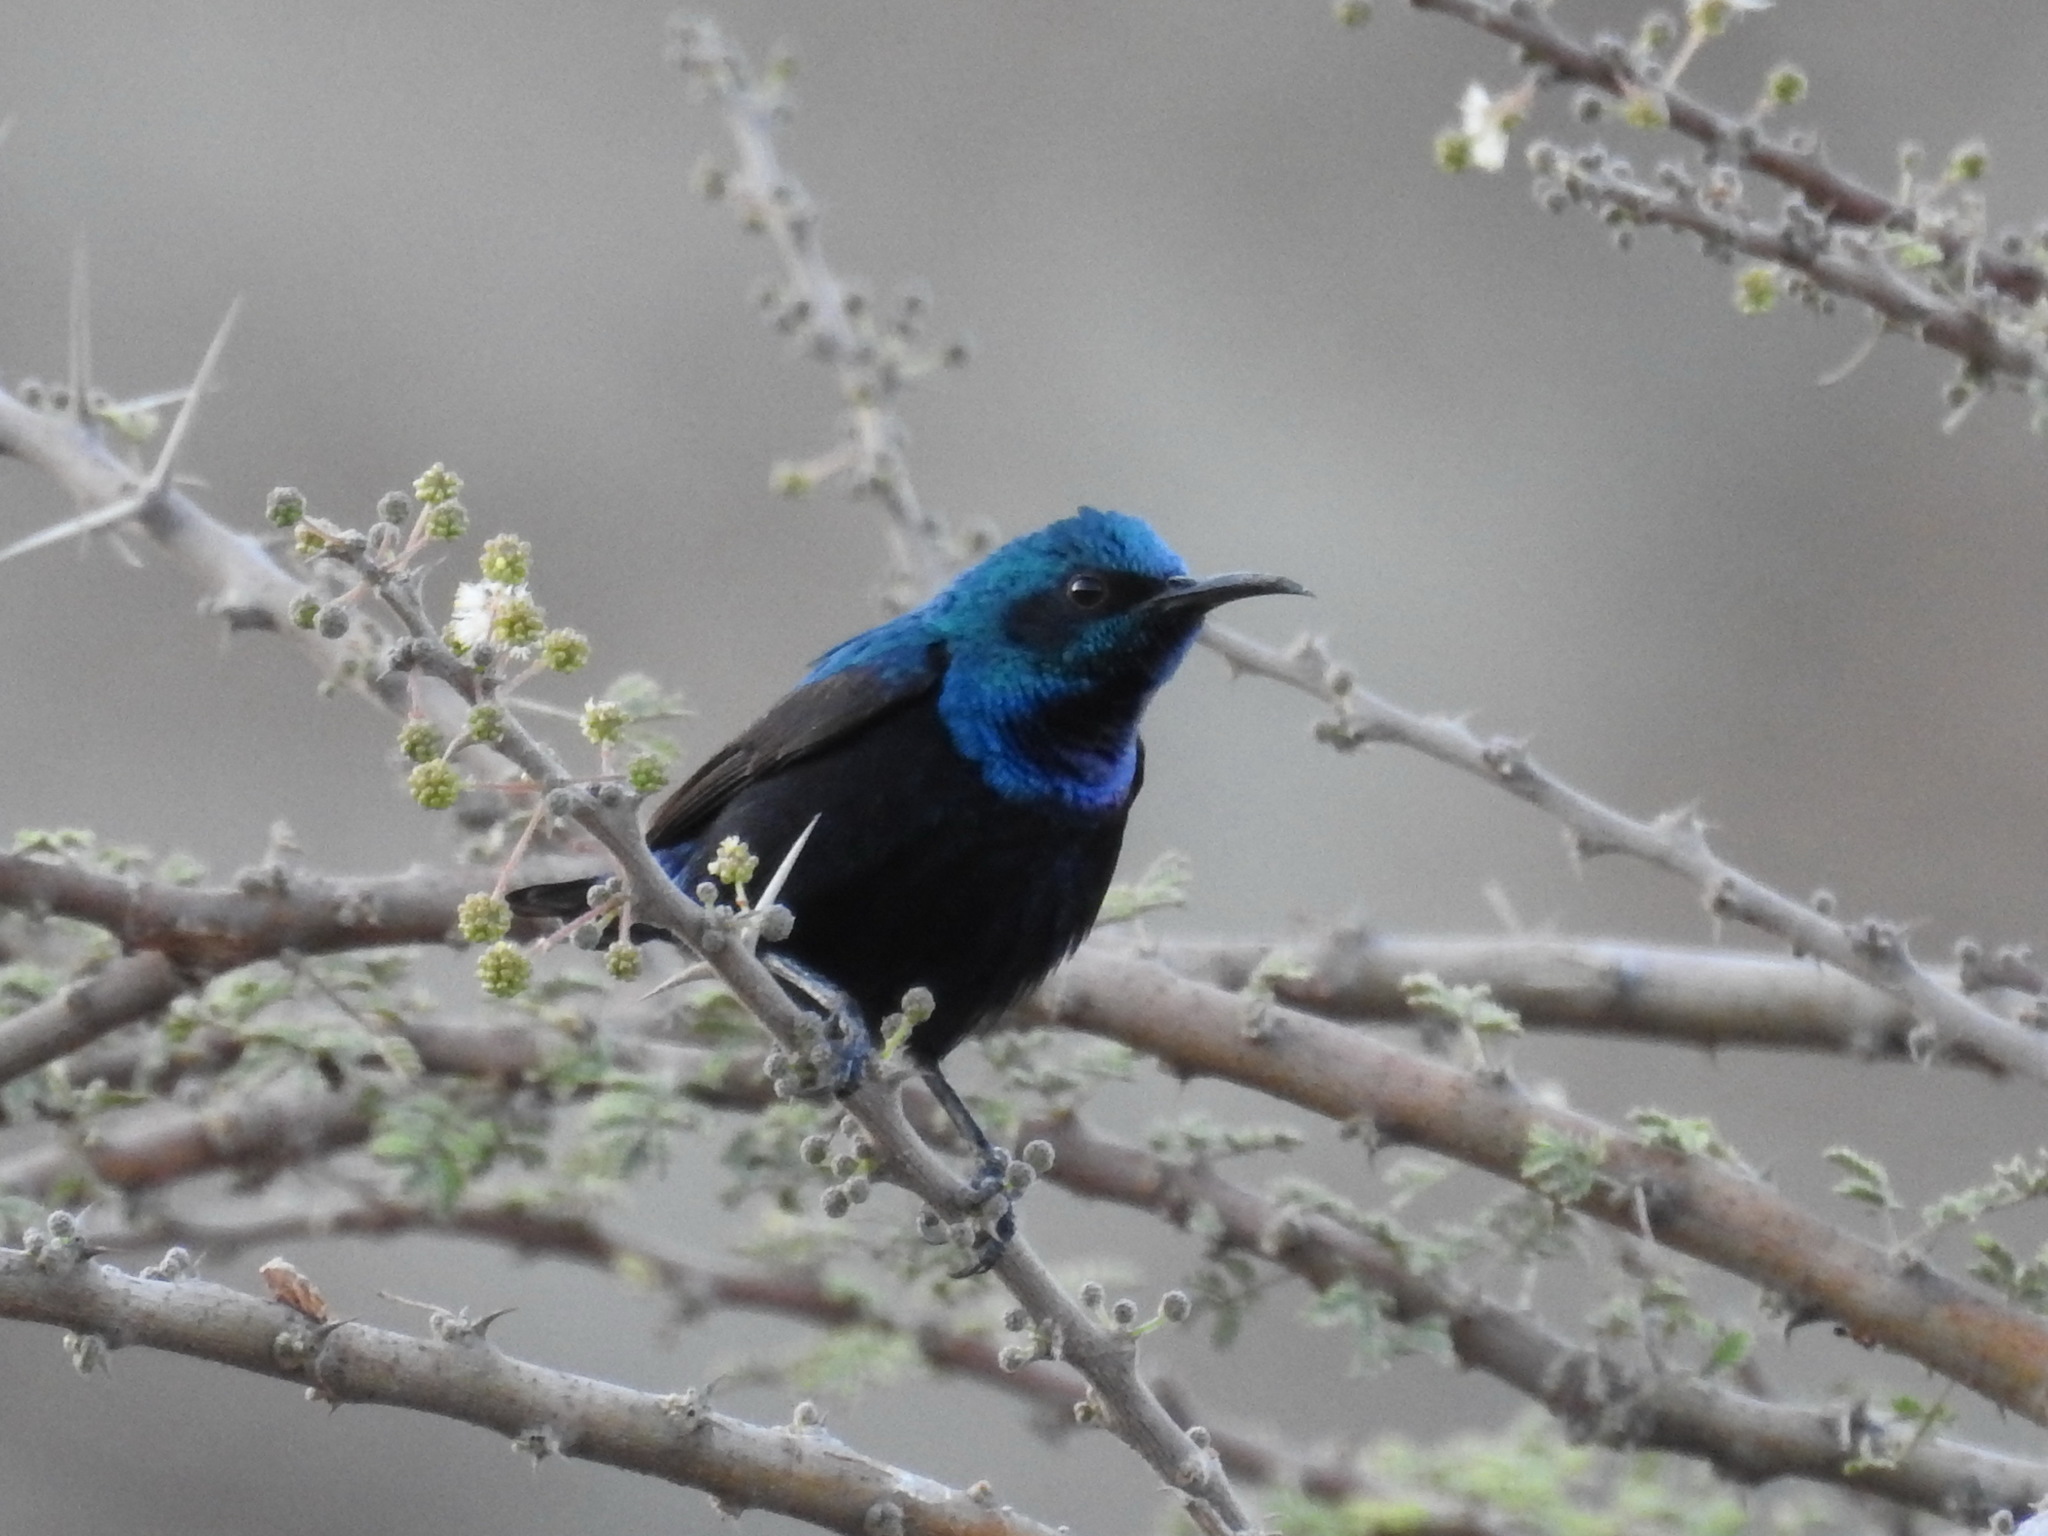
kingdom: Animalia
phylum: Chordata
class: Aves
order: Passeriformes
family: Nectariniidae
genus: Cinnyris
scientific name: Cinnyris asiaticus
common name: Purple sunbird
